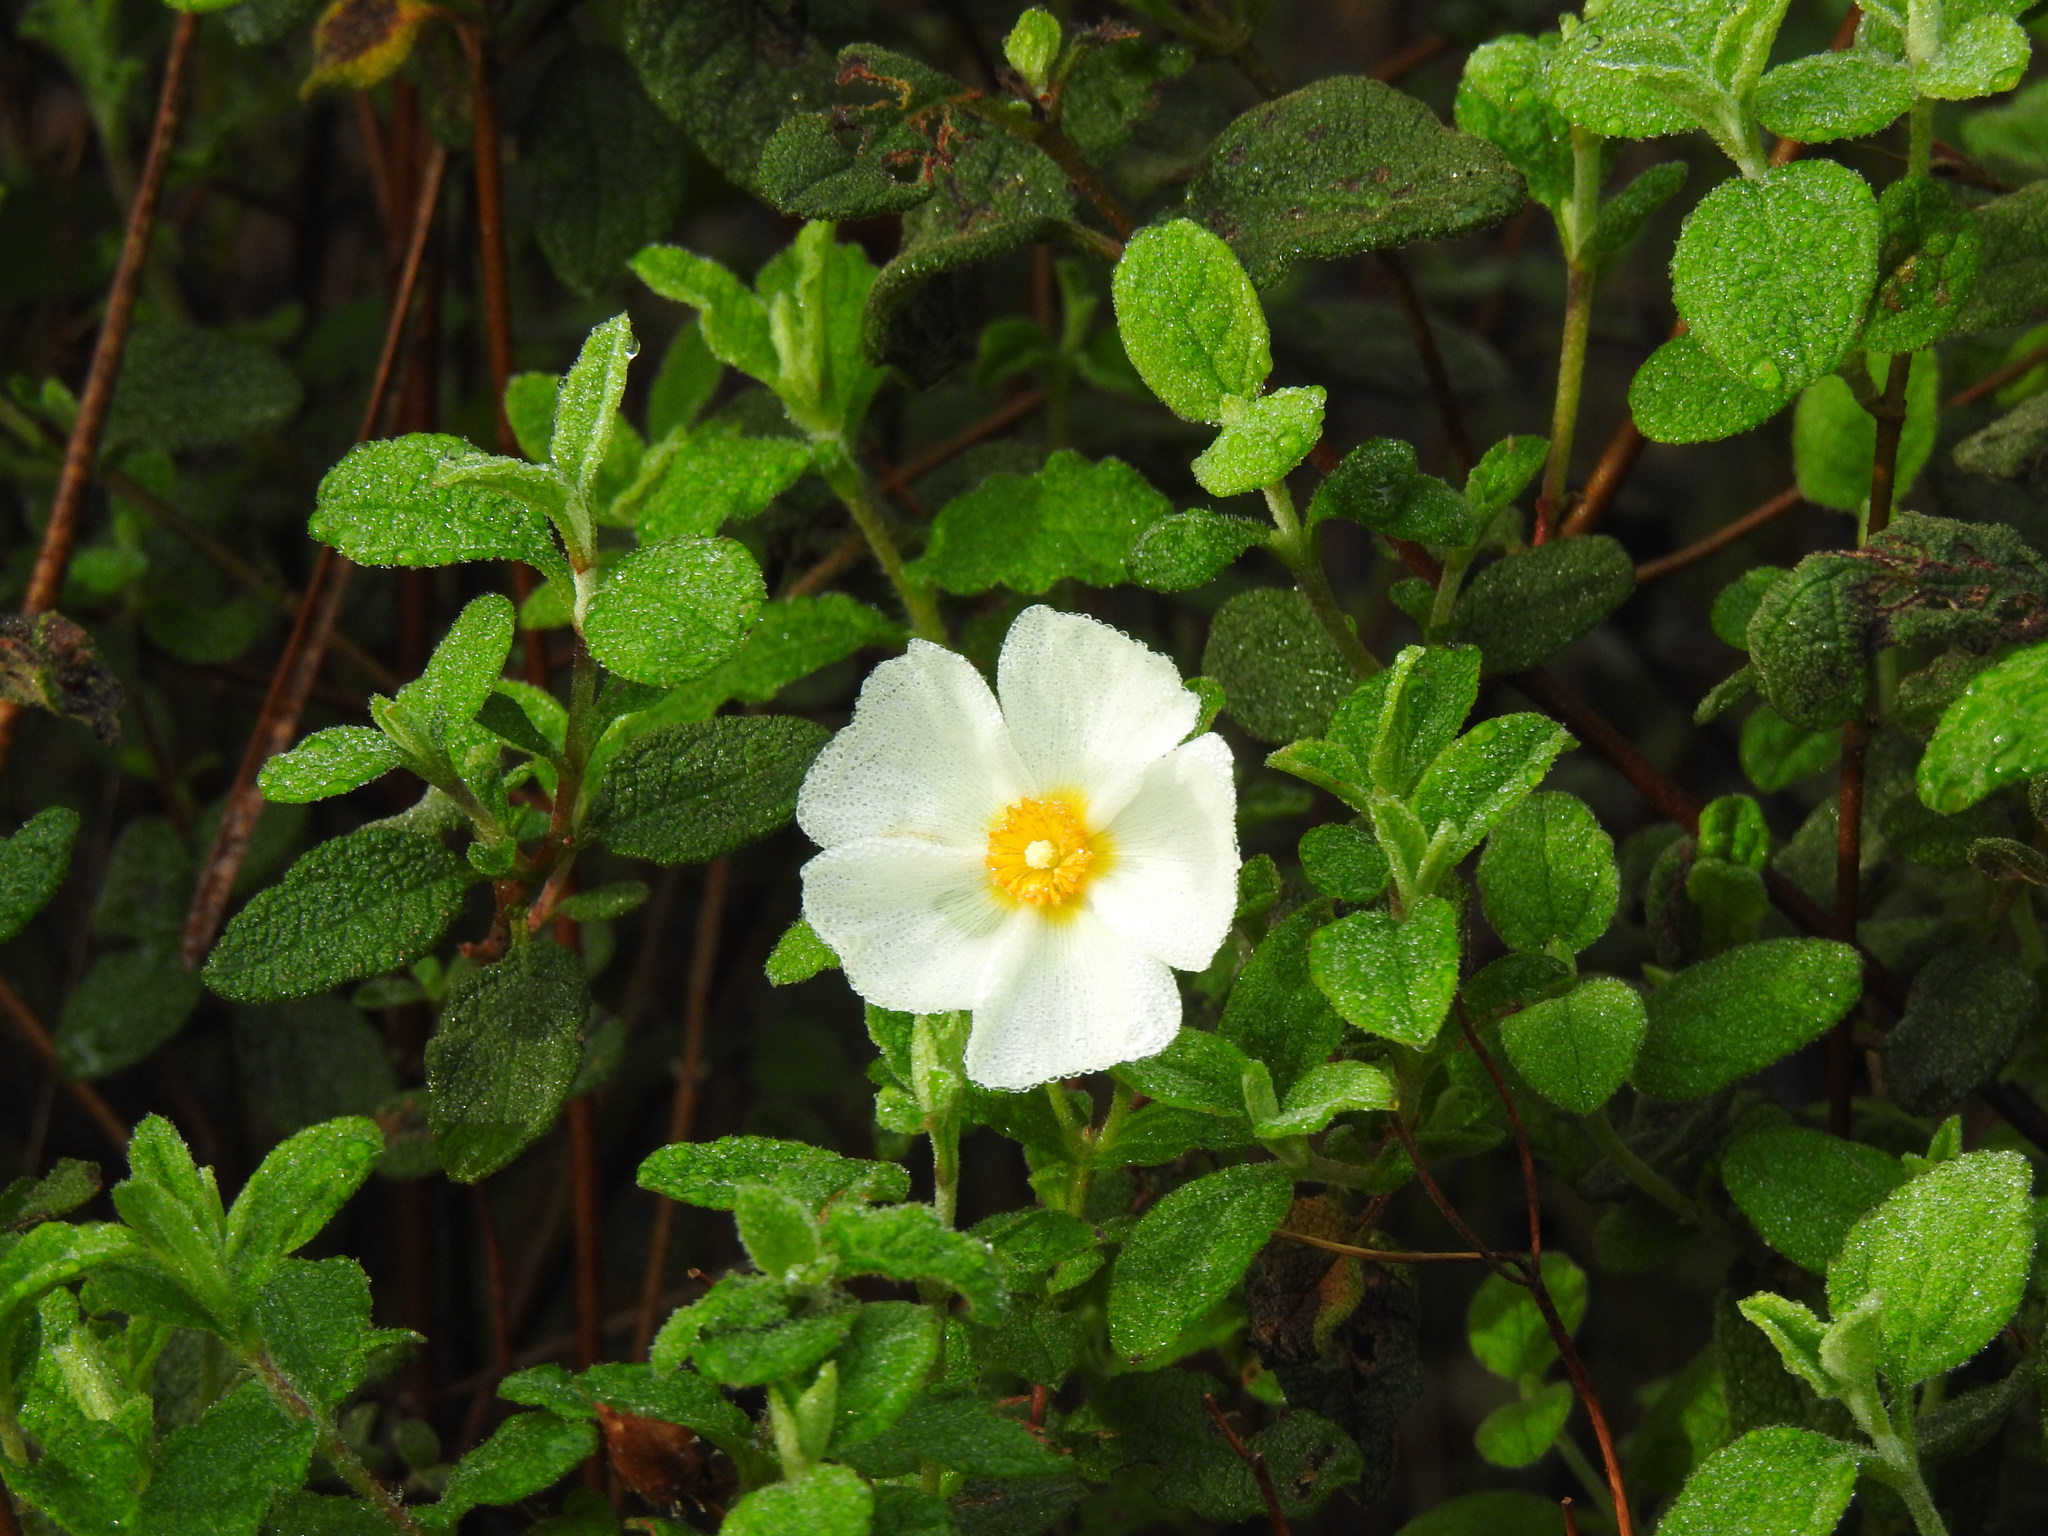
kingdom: Plantae
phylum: Tracheophyta
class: Magnoliopsida
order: Malvales
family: Cistaceae
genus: Cistus
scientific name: Cistus salviifolius
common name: Salvia cistus
